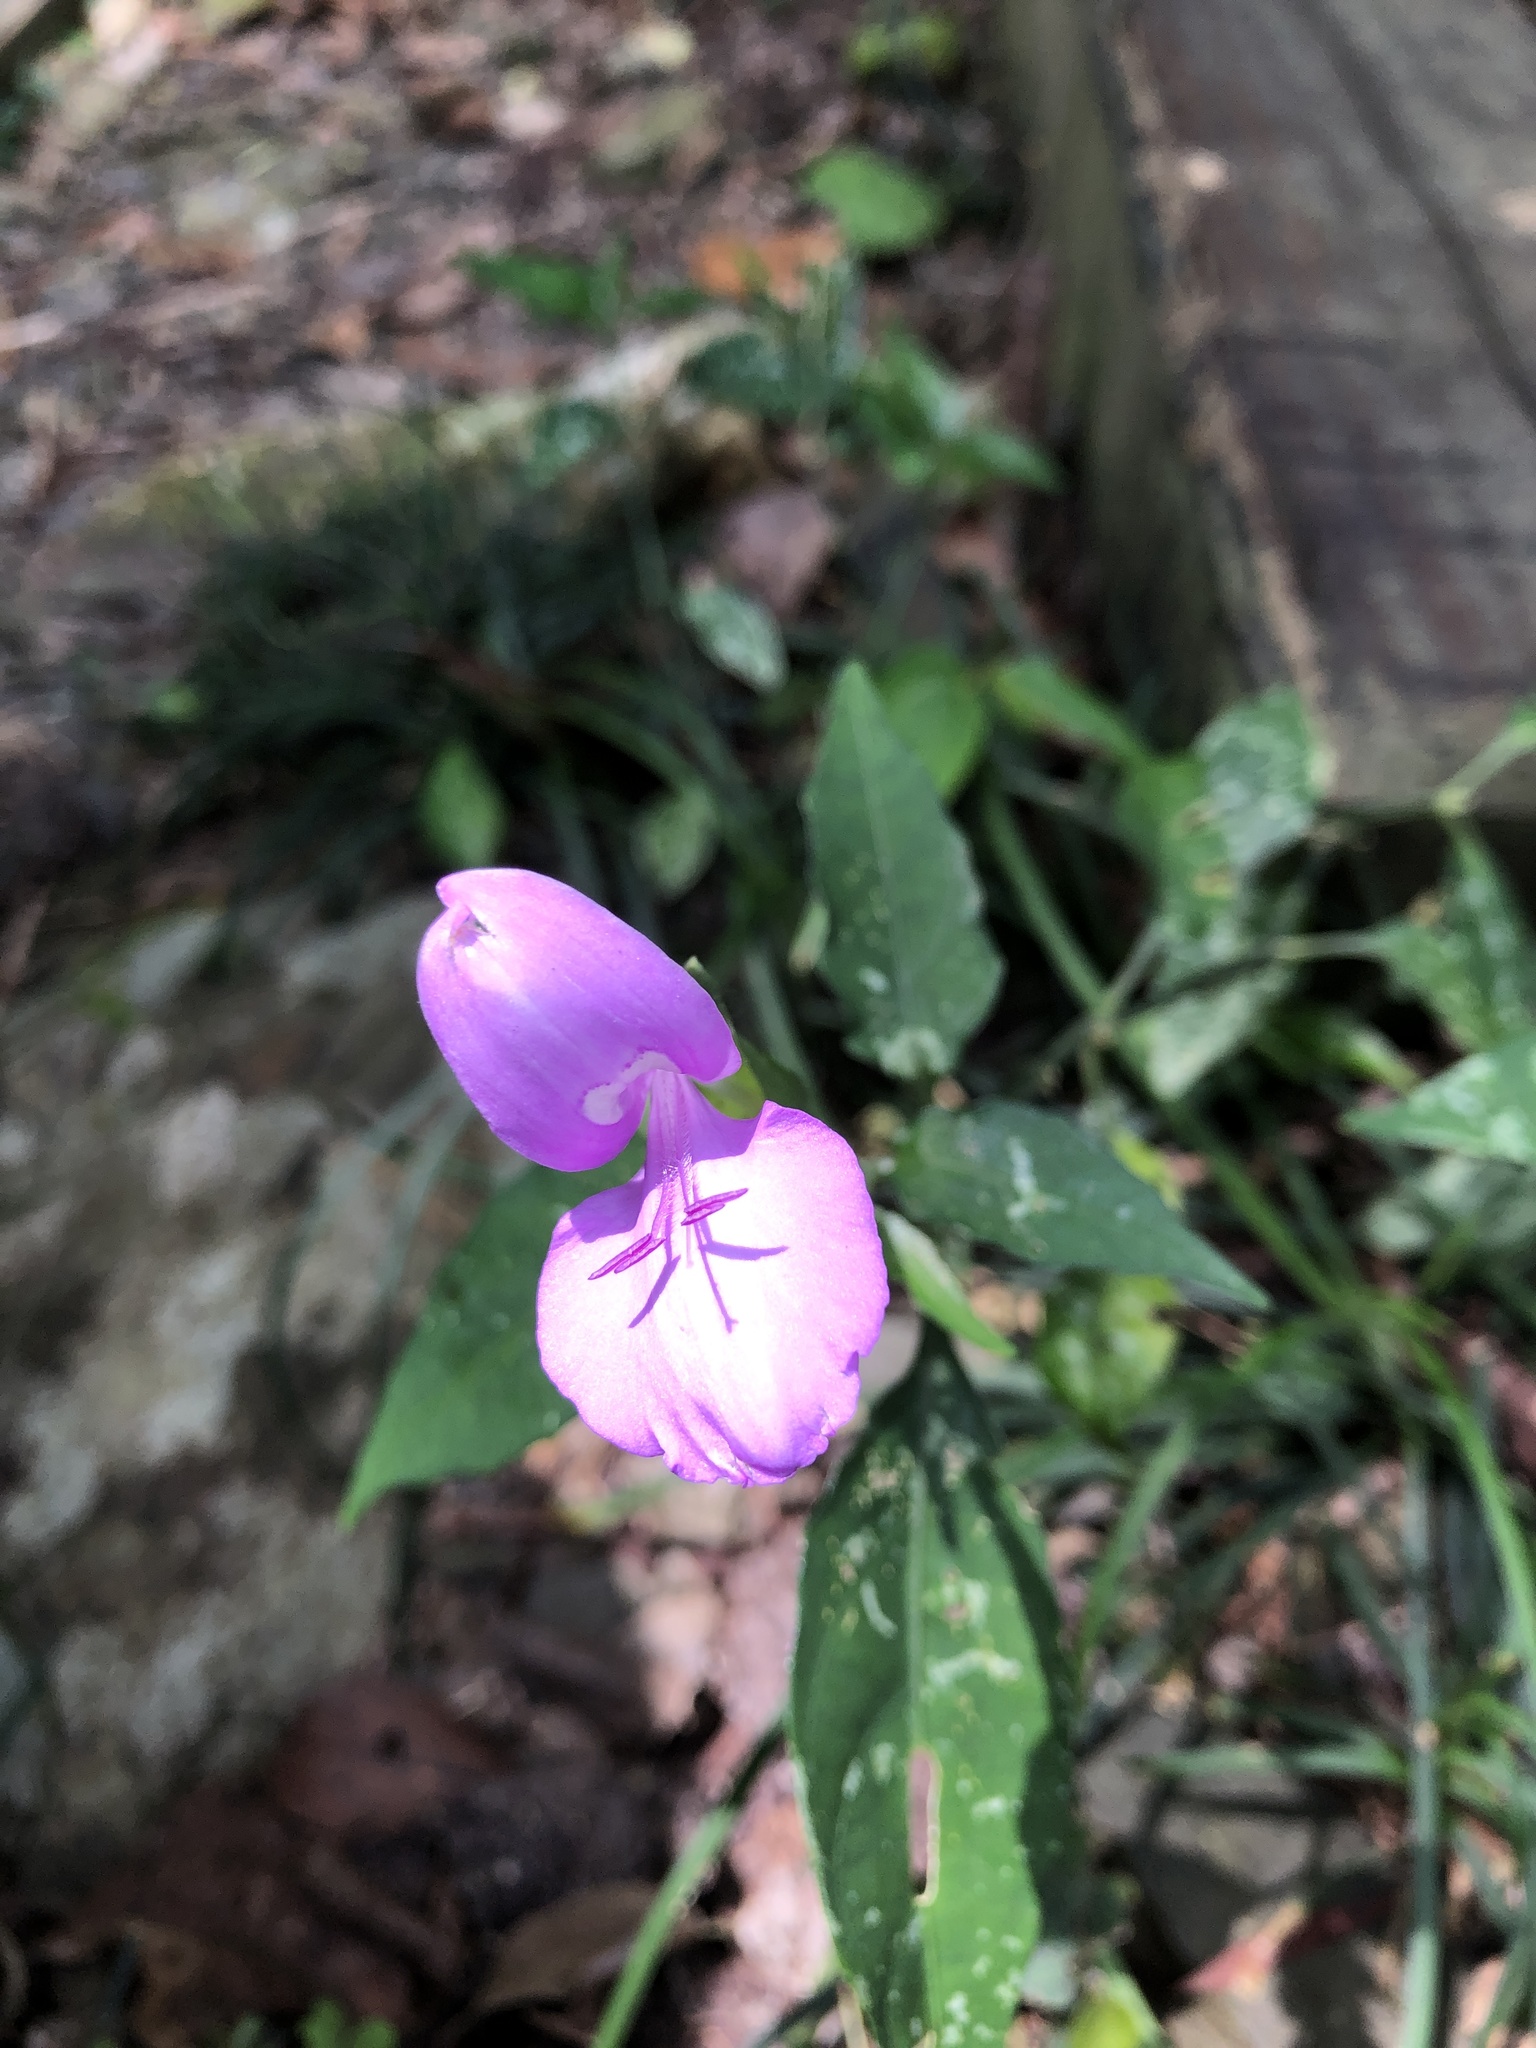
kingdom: Plantae
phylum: Tracheophyta
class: Magnoliopsida
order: Lamiales
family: Acanthaceae
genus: Dicliptera
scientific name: Dicliptera tinctoria
